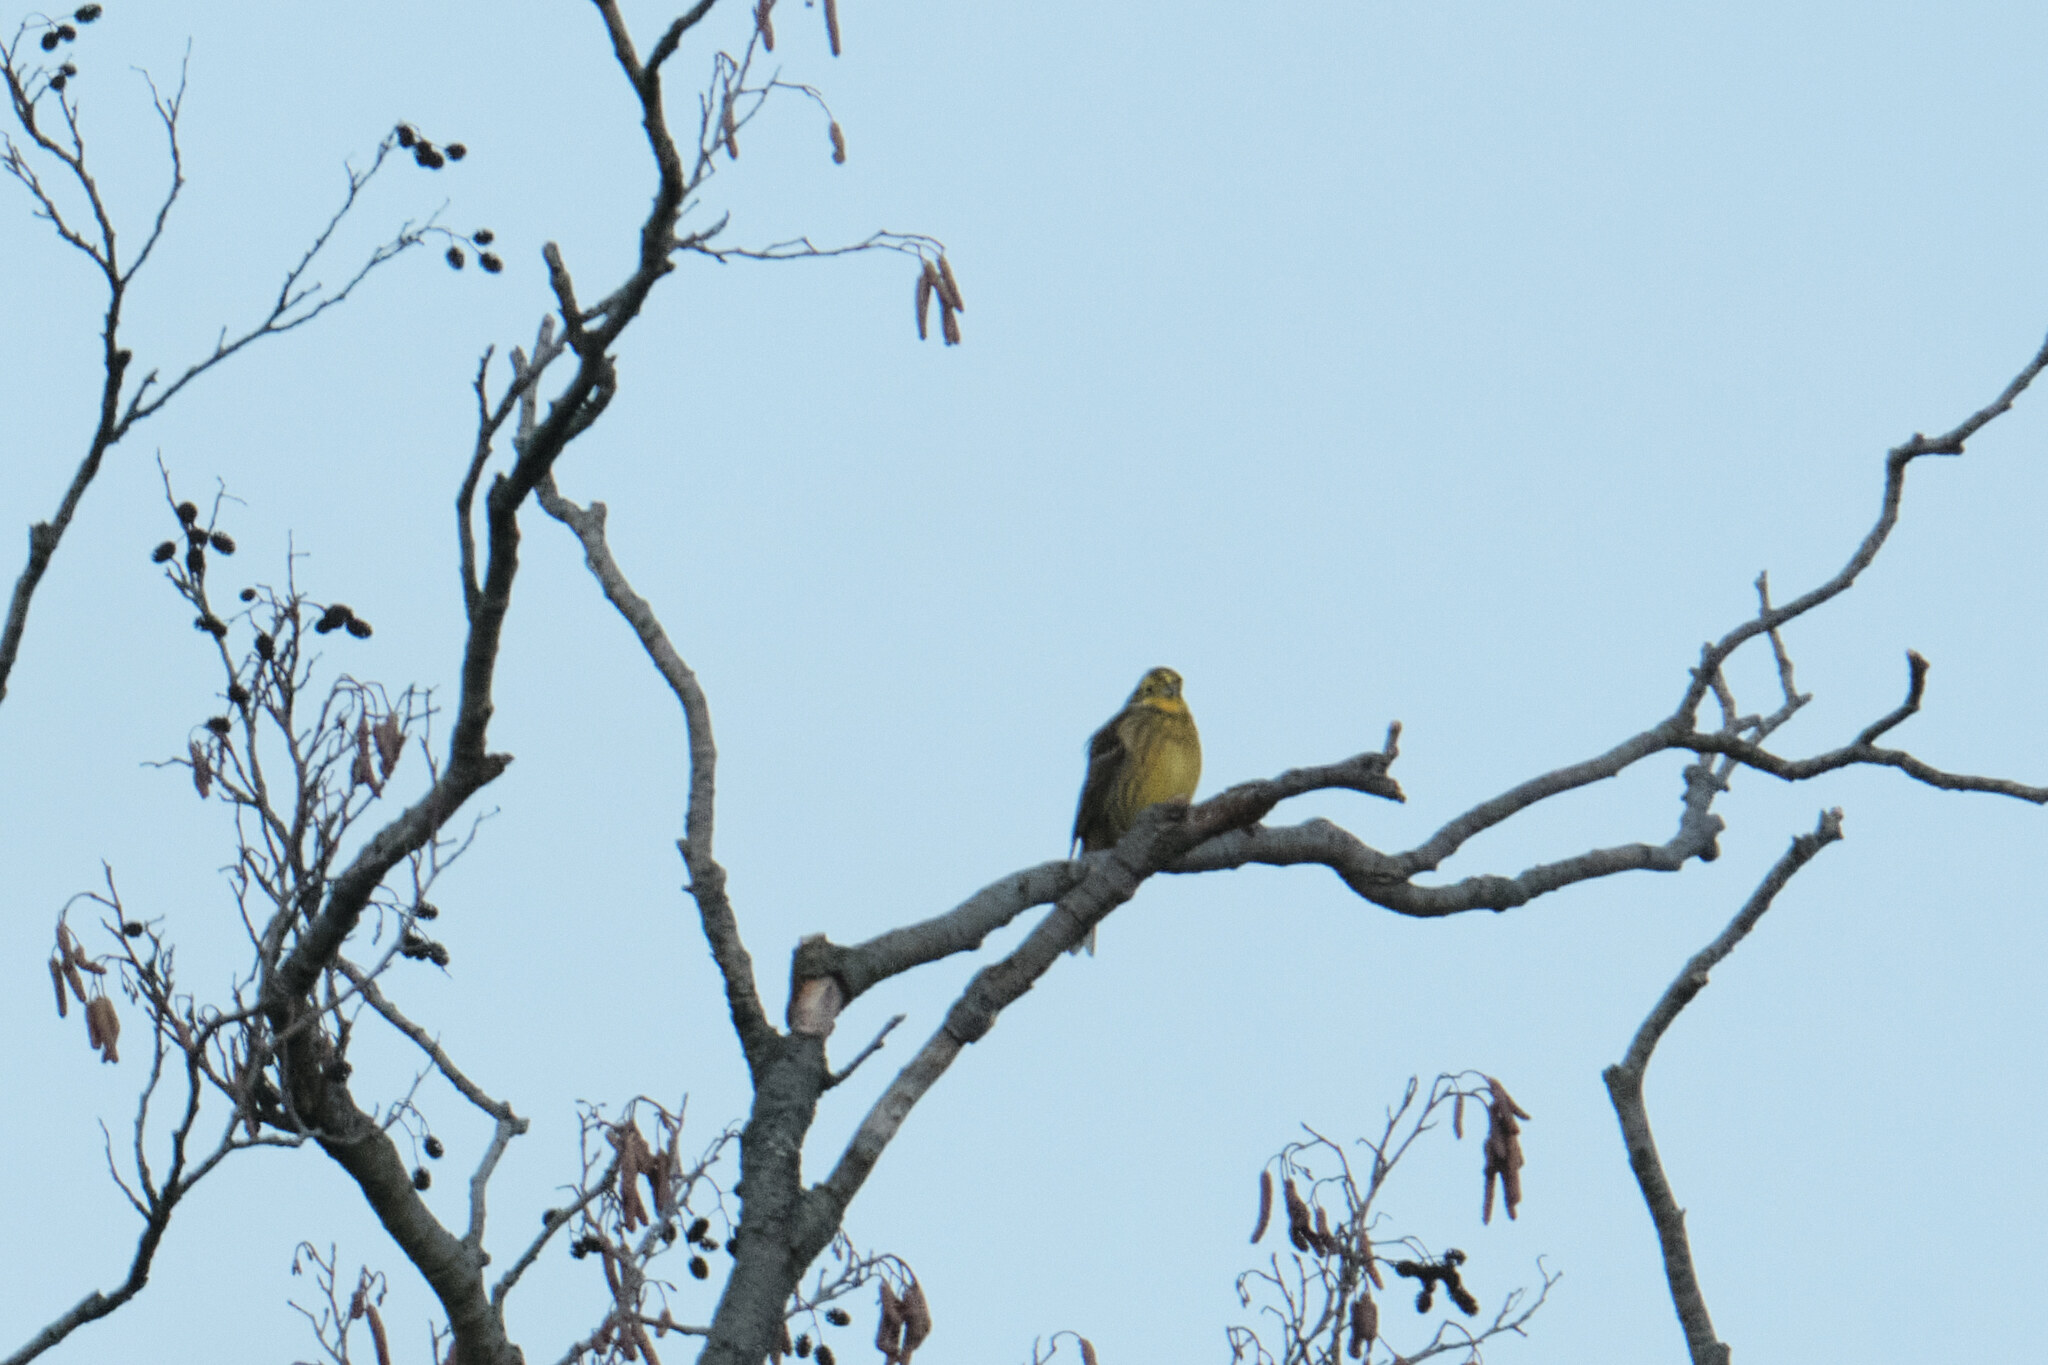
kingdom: Animalia
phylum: Chordata
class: Aves
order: Passeriformes
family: Emberizidae
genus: Emberiza
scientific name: Emberiza citrinella
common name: Yellowhammer
